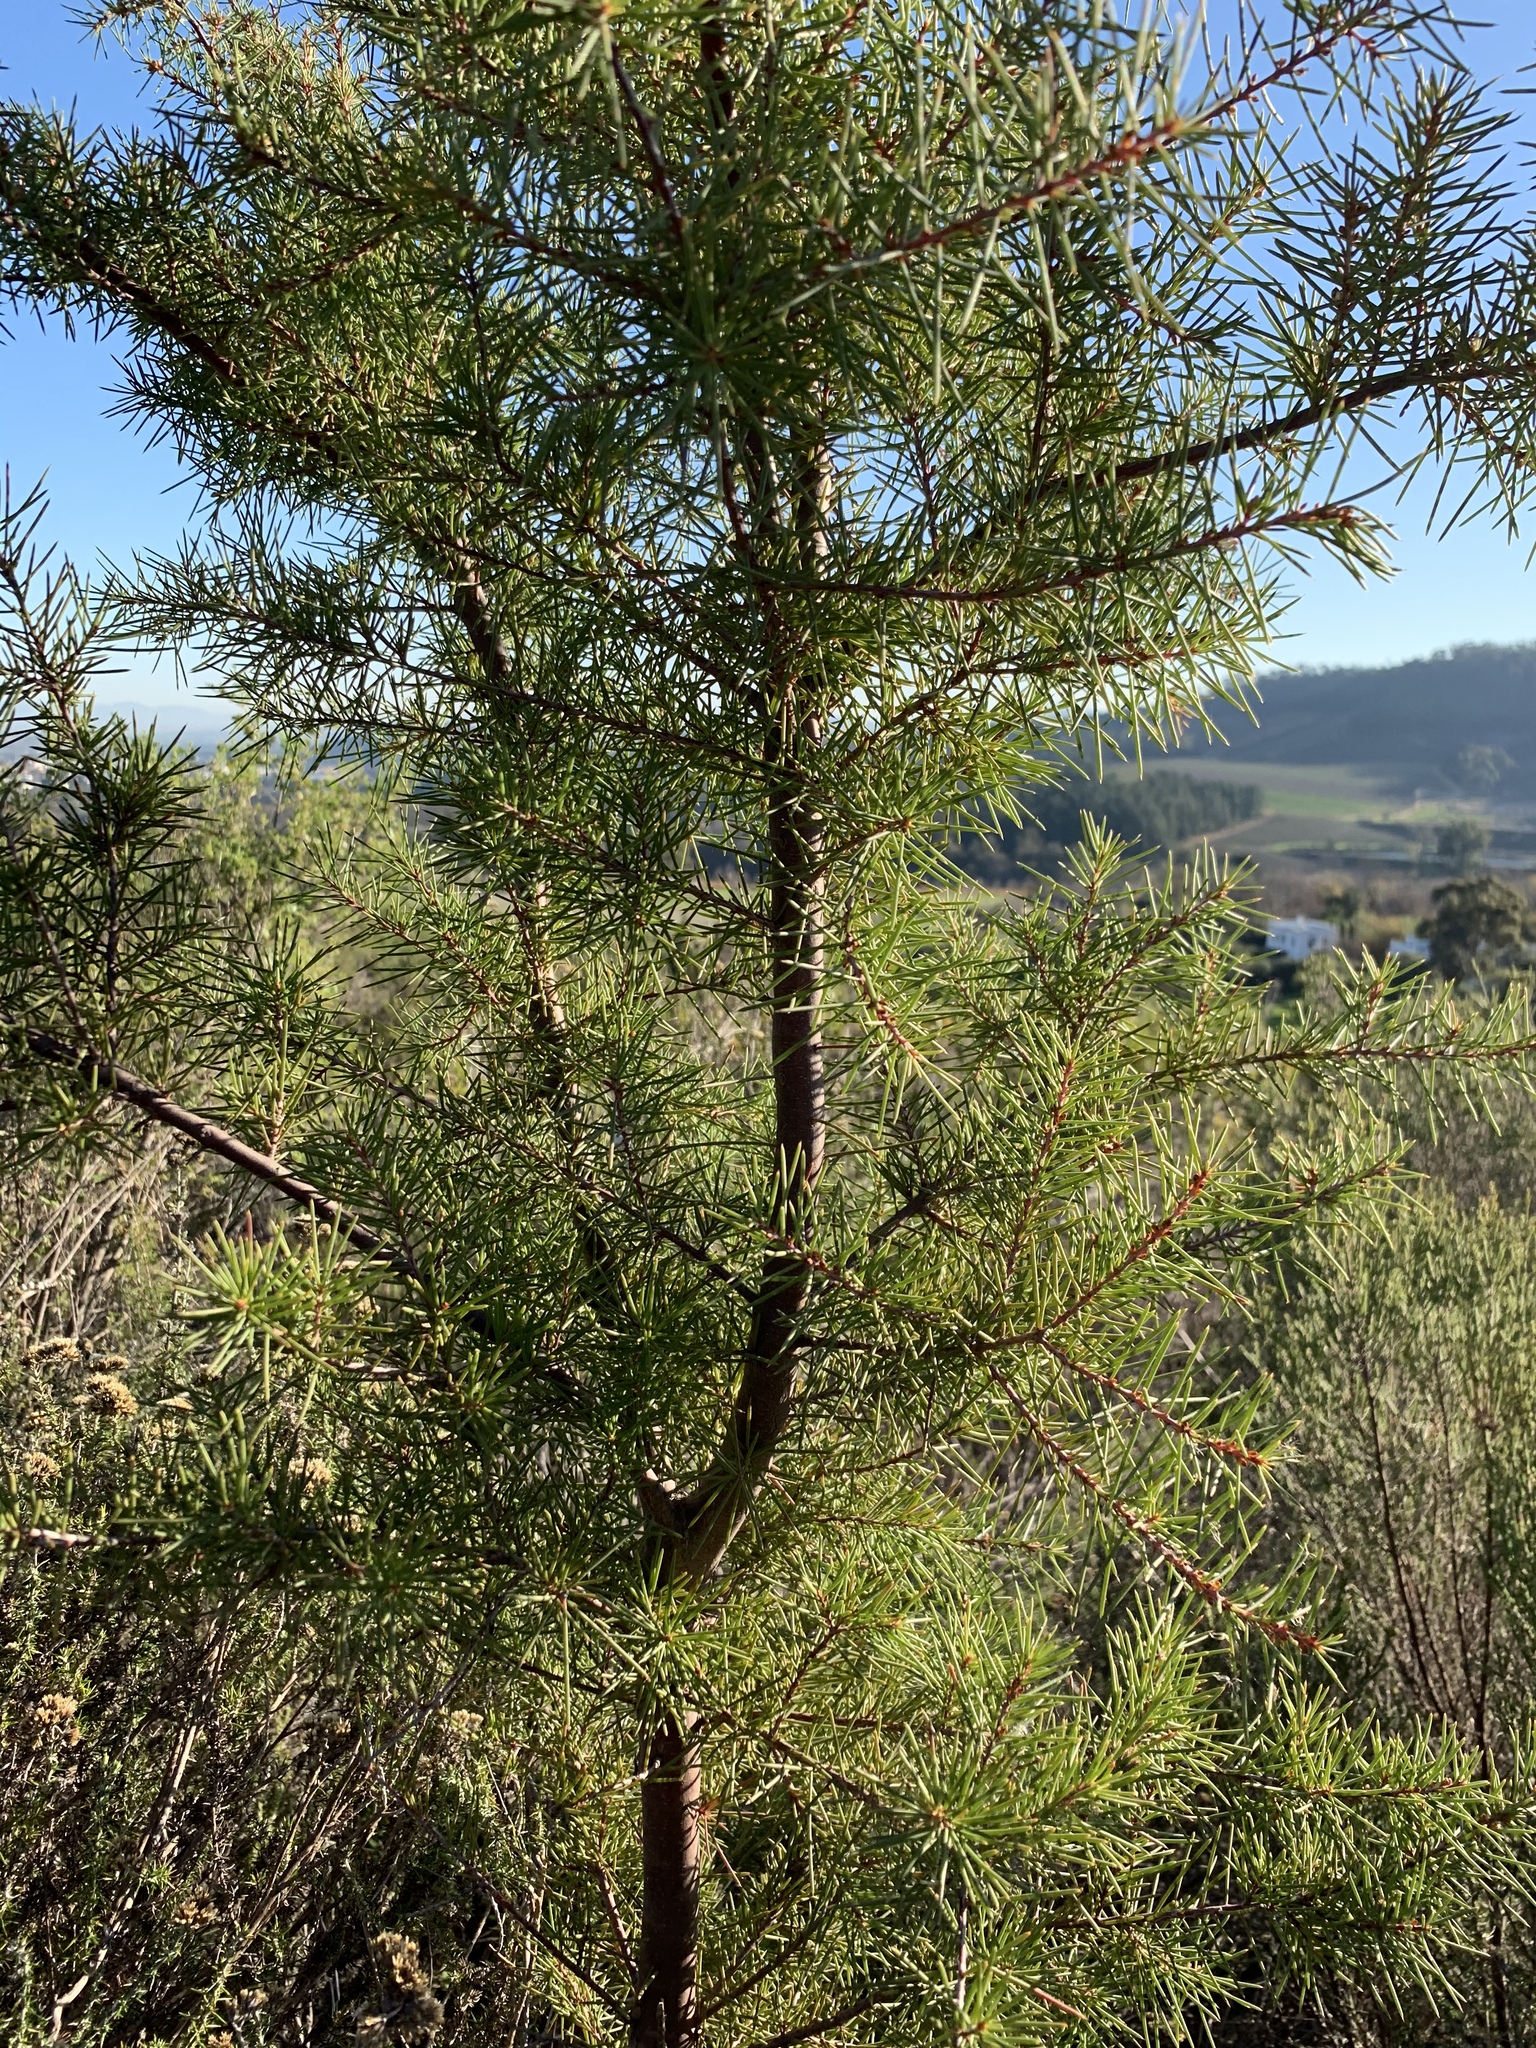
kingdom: Plantae
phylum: Tracheophyta
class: Magnoliopsida
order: Proteales
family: Proteaceae
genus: Hakea
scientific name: Hakea sericea
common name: Needle bush
